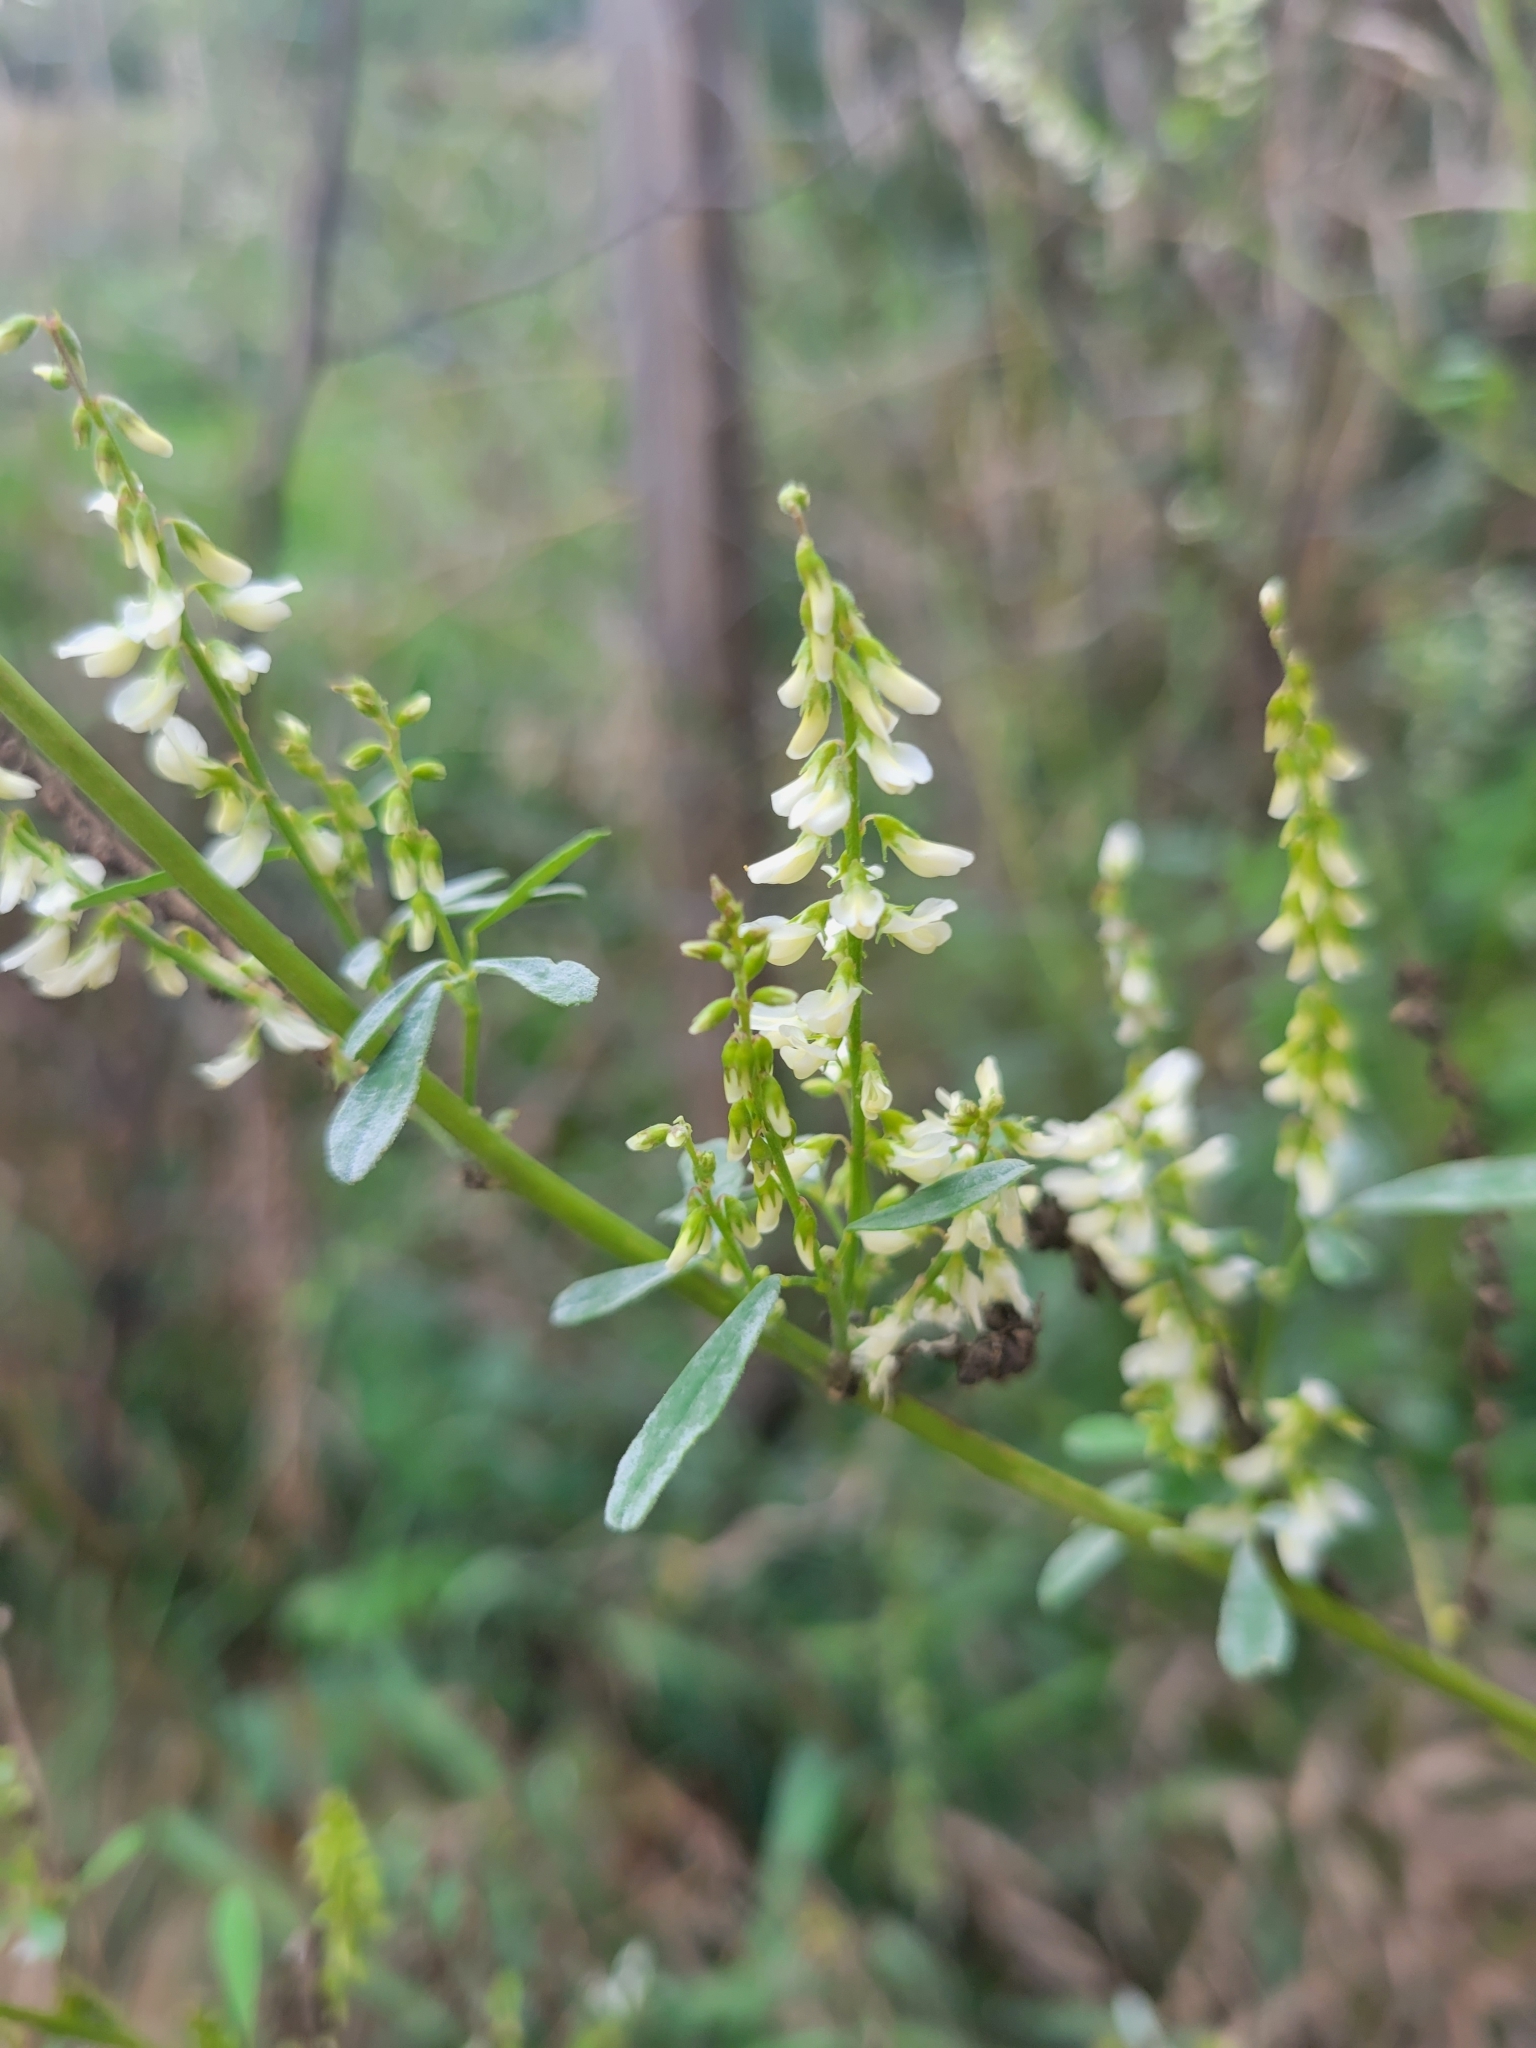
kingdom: Plantae
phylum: Tracheophyta
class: Magnoliopsida
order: Fabales
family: Fabaceae
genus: Melilotus
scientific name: Melilotus albus
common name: White melilot
